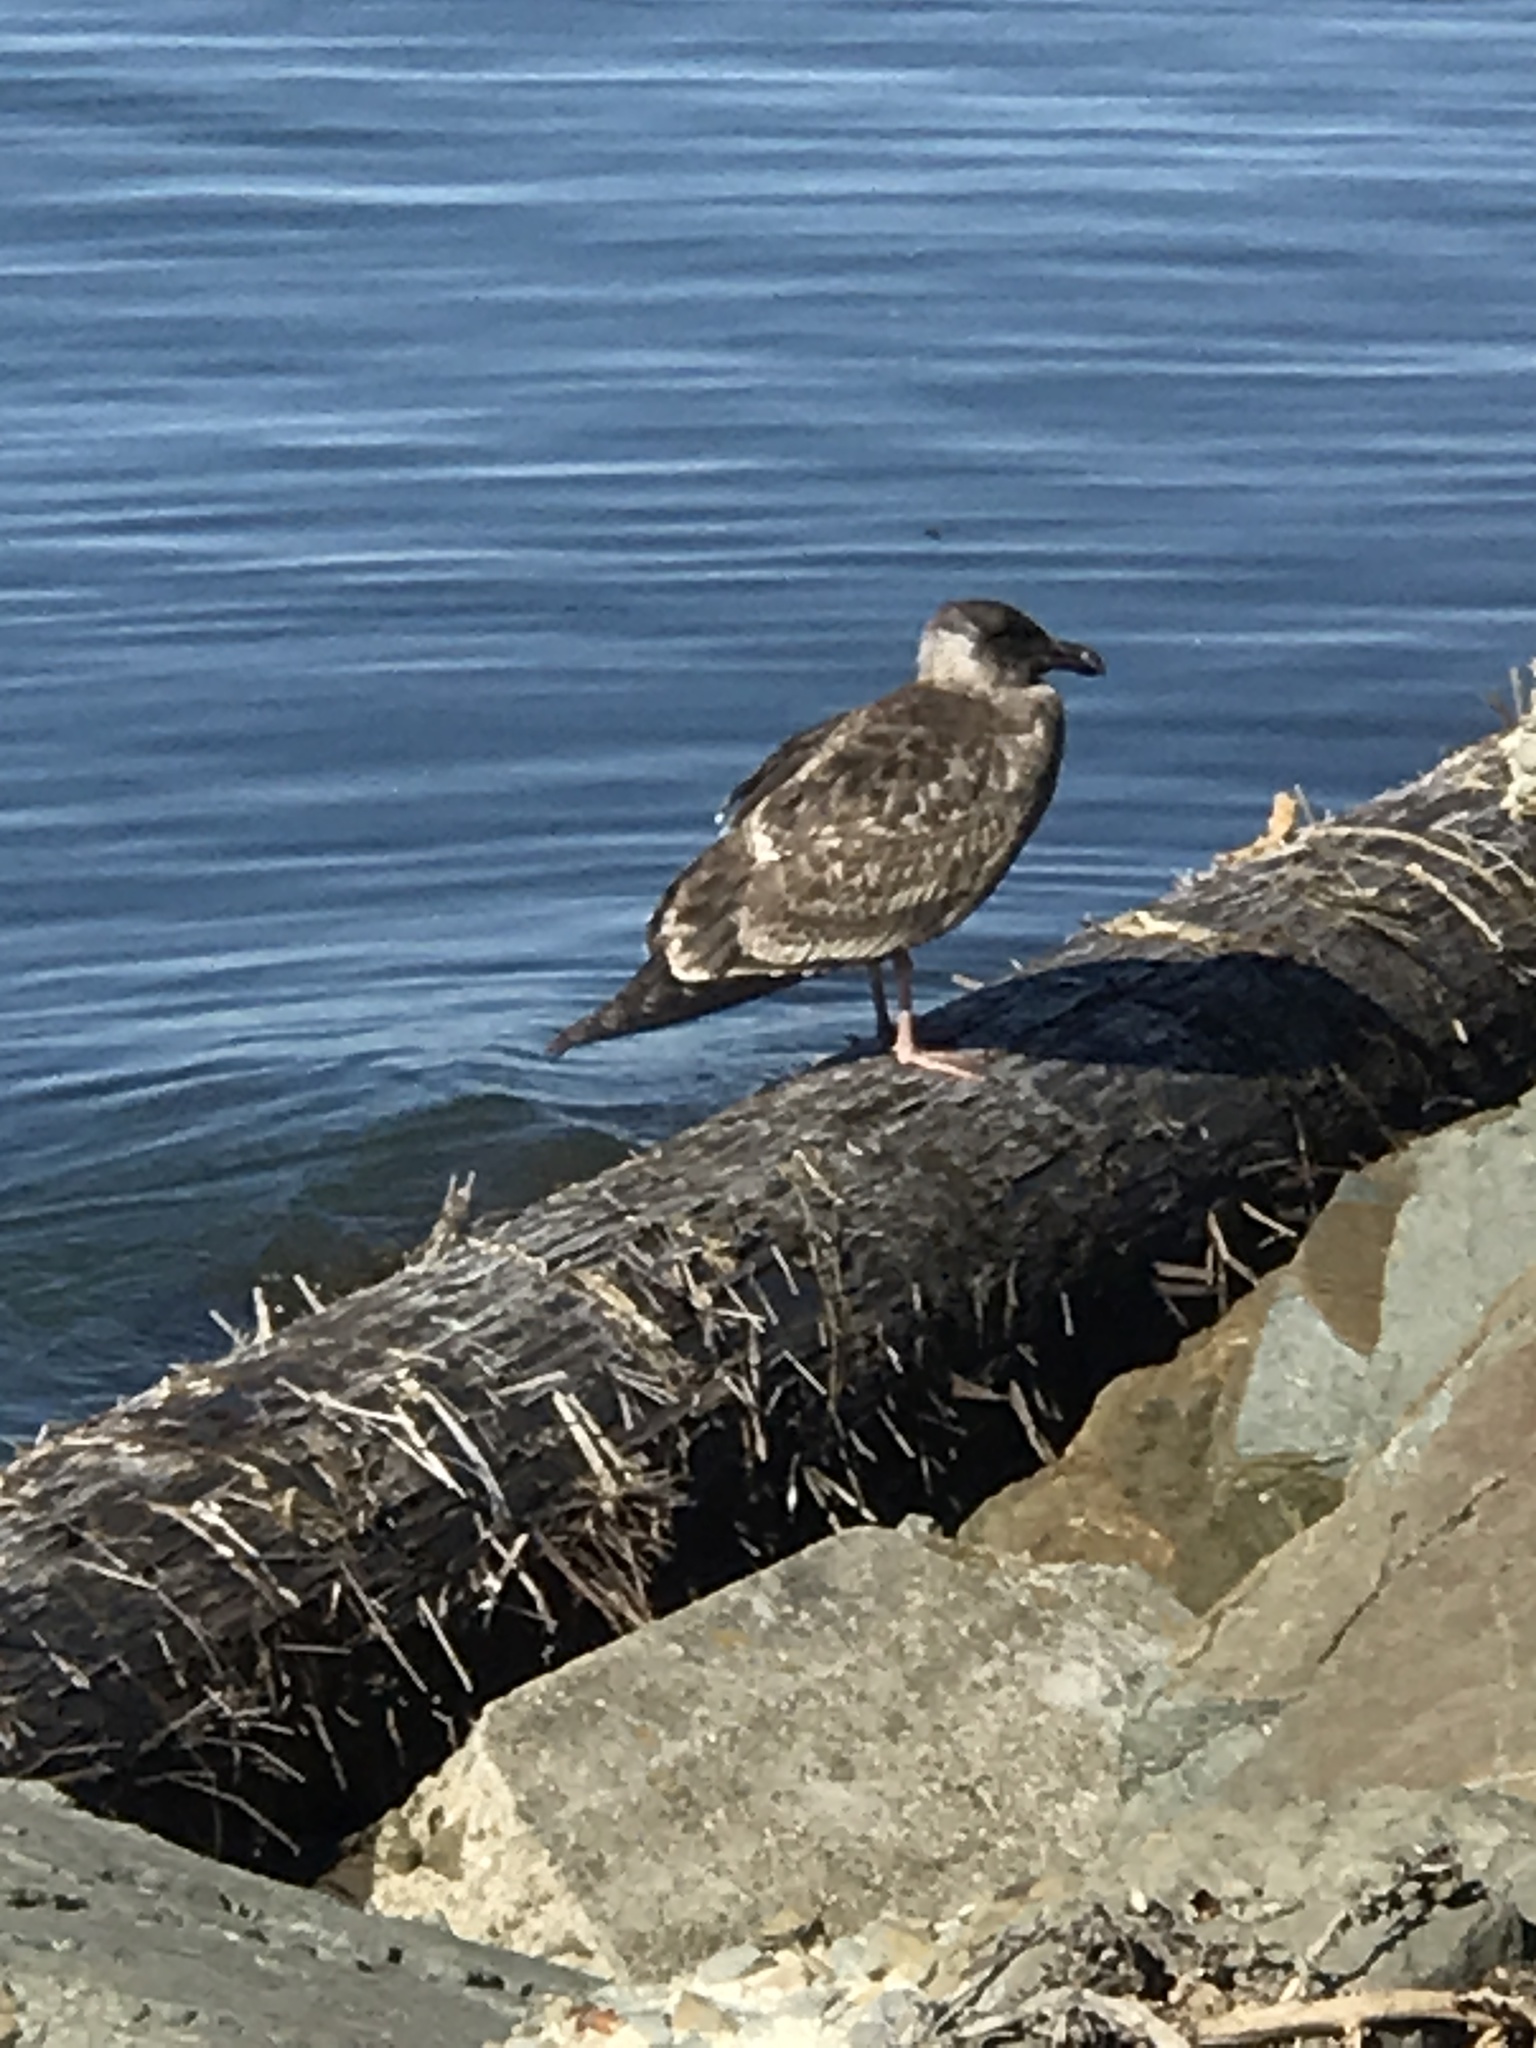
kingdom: Animalia
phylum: Chordata
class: Aves
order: Charadriiformes
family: Laridae
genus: Larus
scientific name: Larus occidentalis
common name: Western gull
